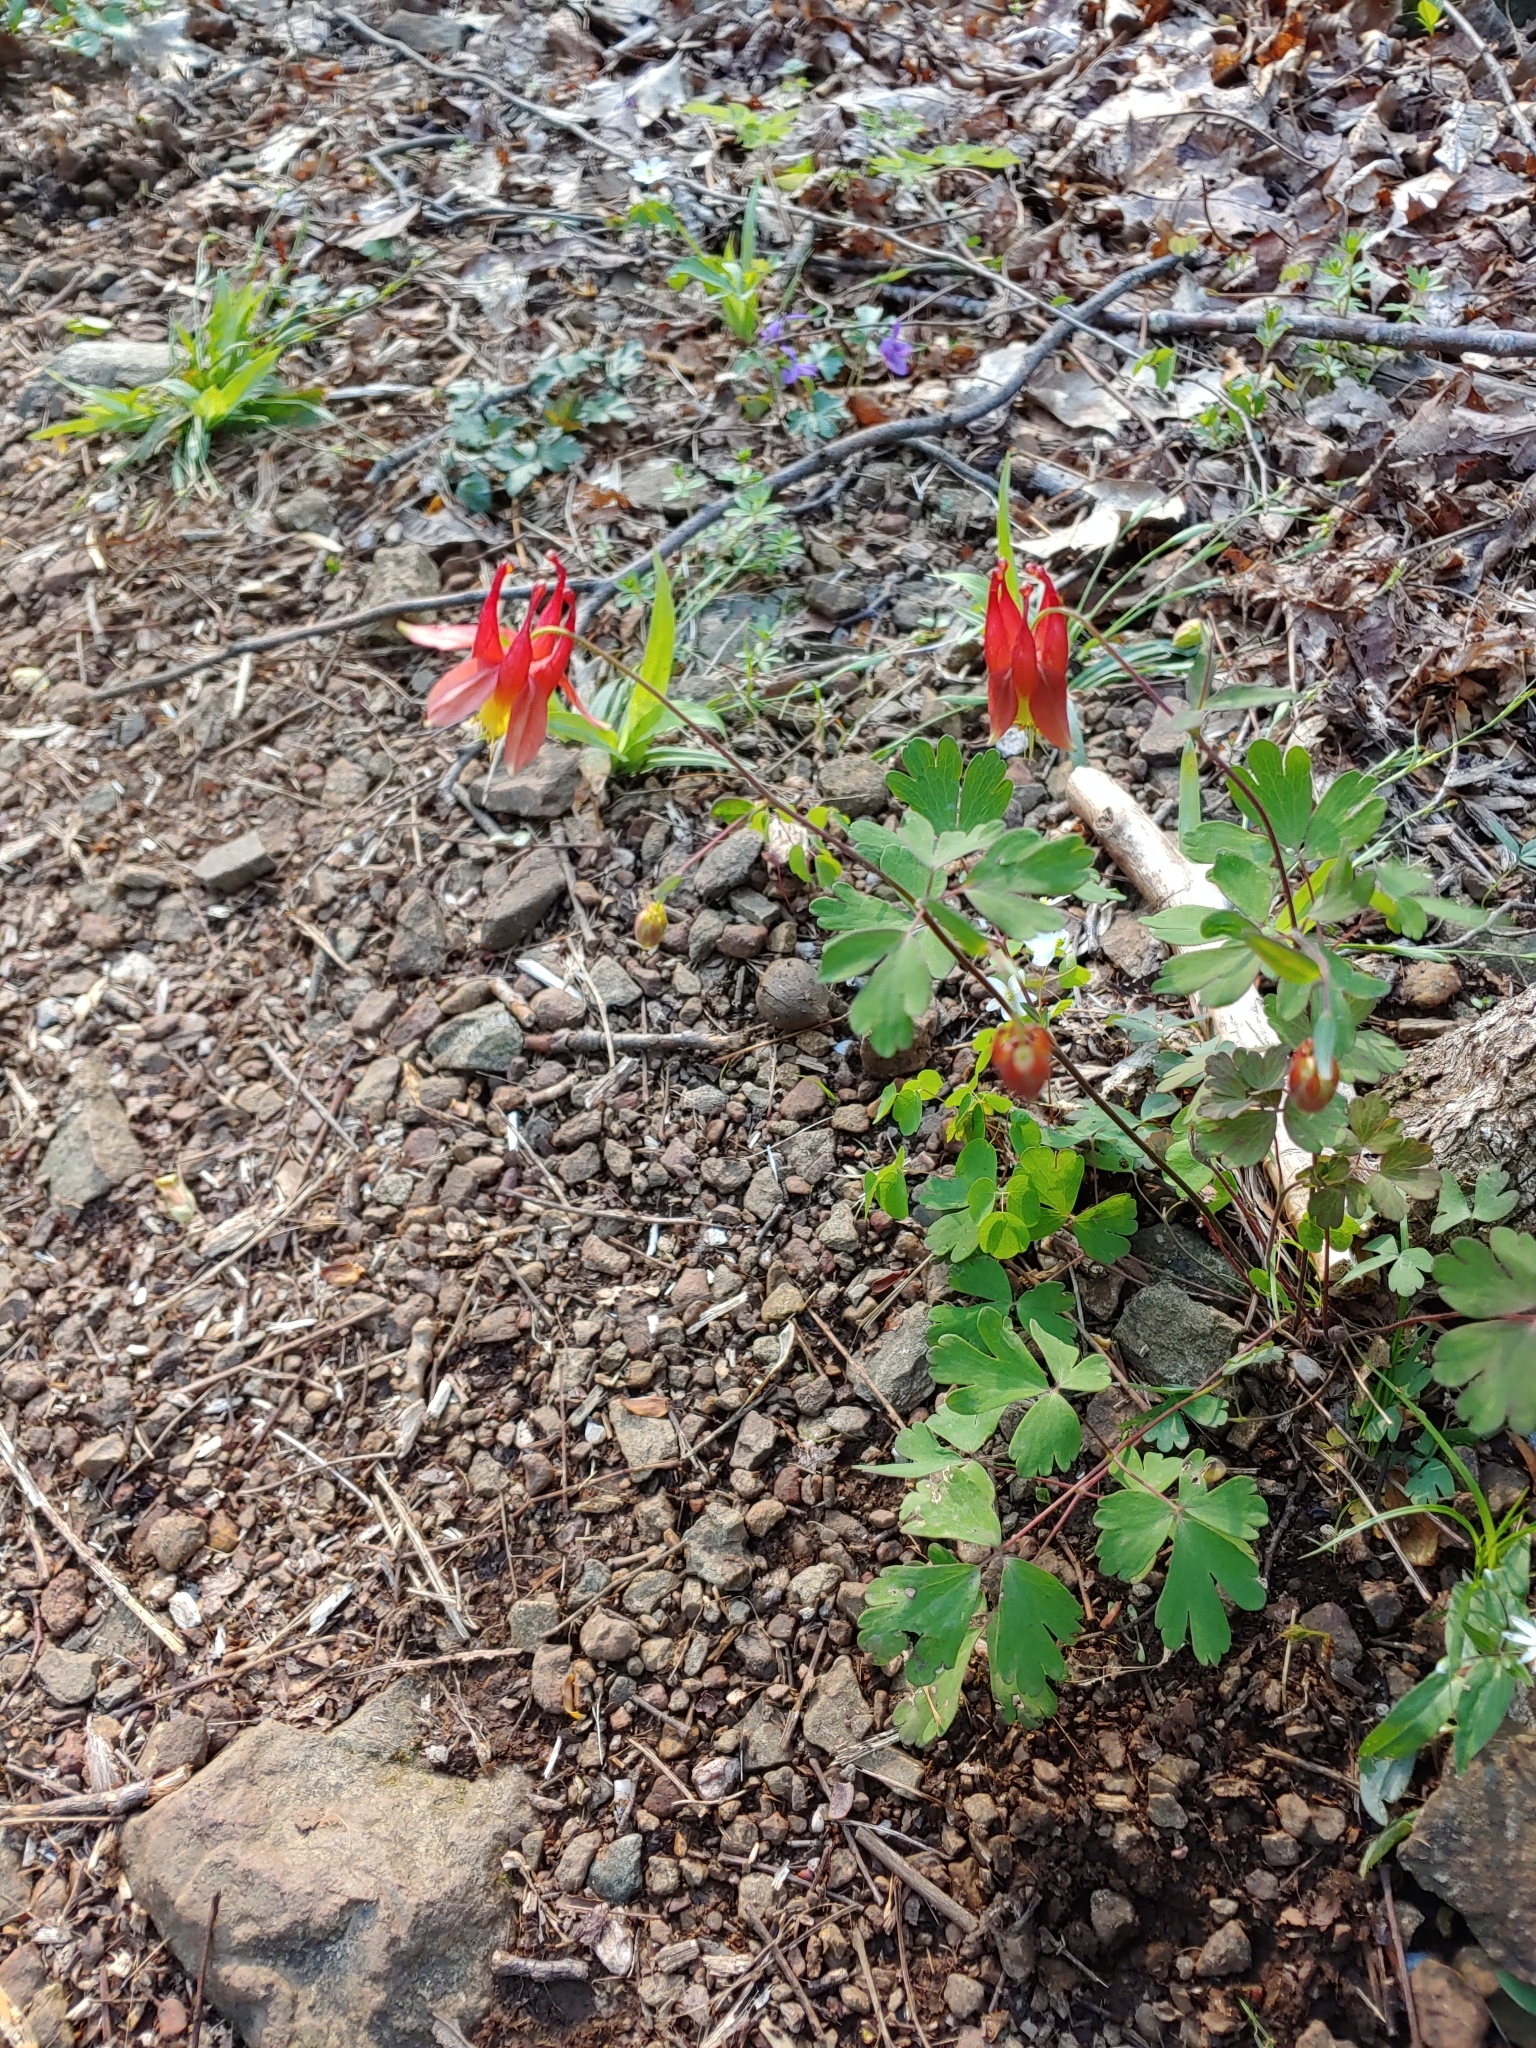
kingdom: Plantae
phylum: Tracheophyta
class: Magnoliopsida
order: Ranunculales
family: Ranunculaceae
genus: Aquilegia
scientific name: Aquilegia canadensis
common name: American columbine
